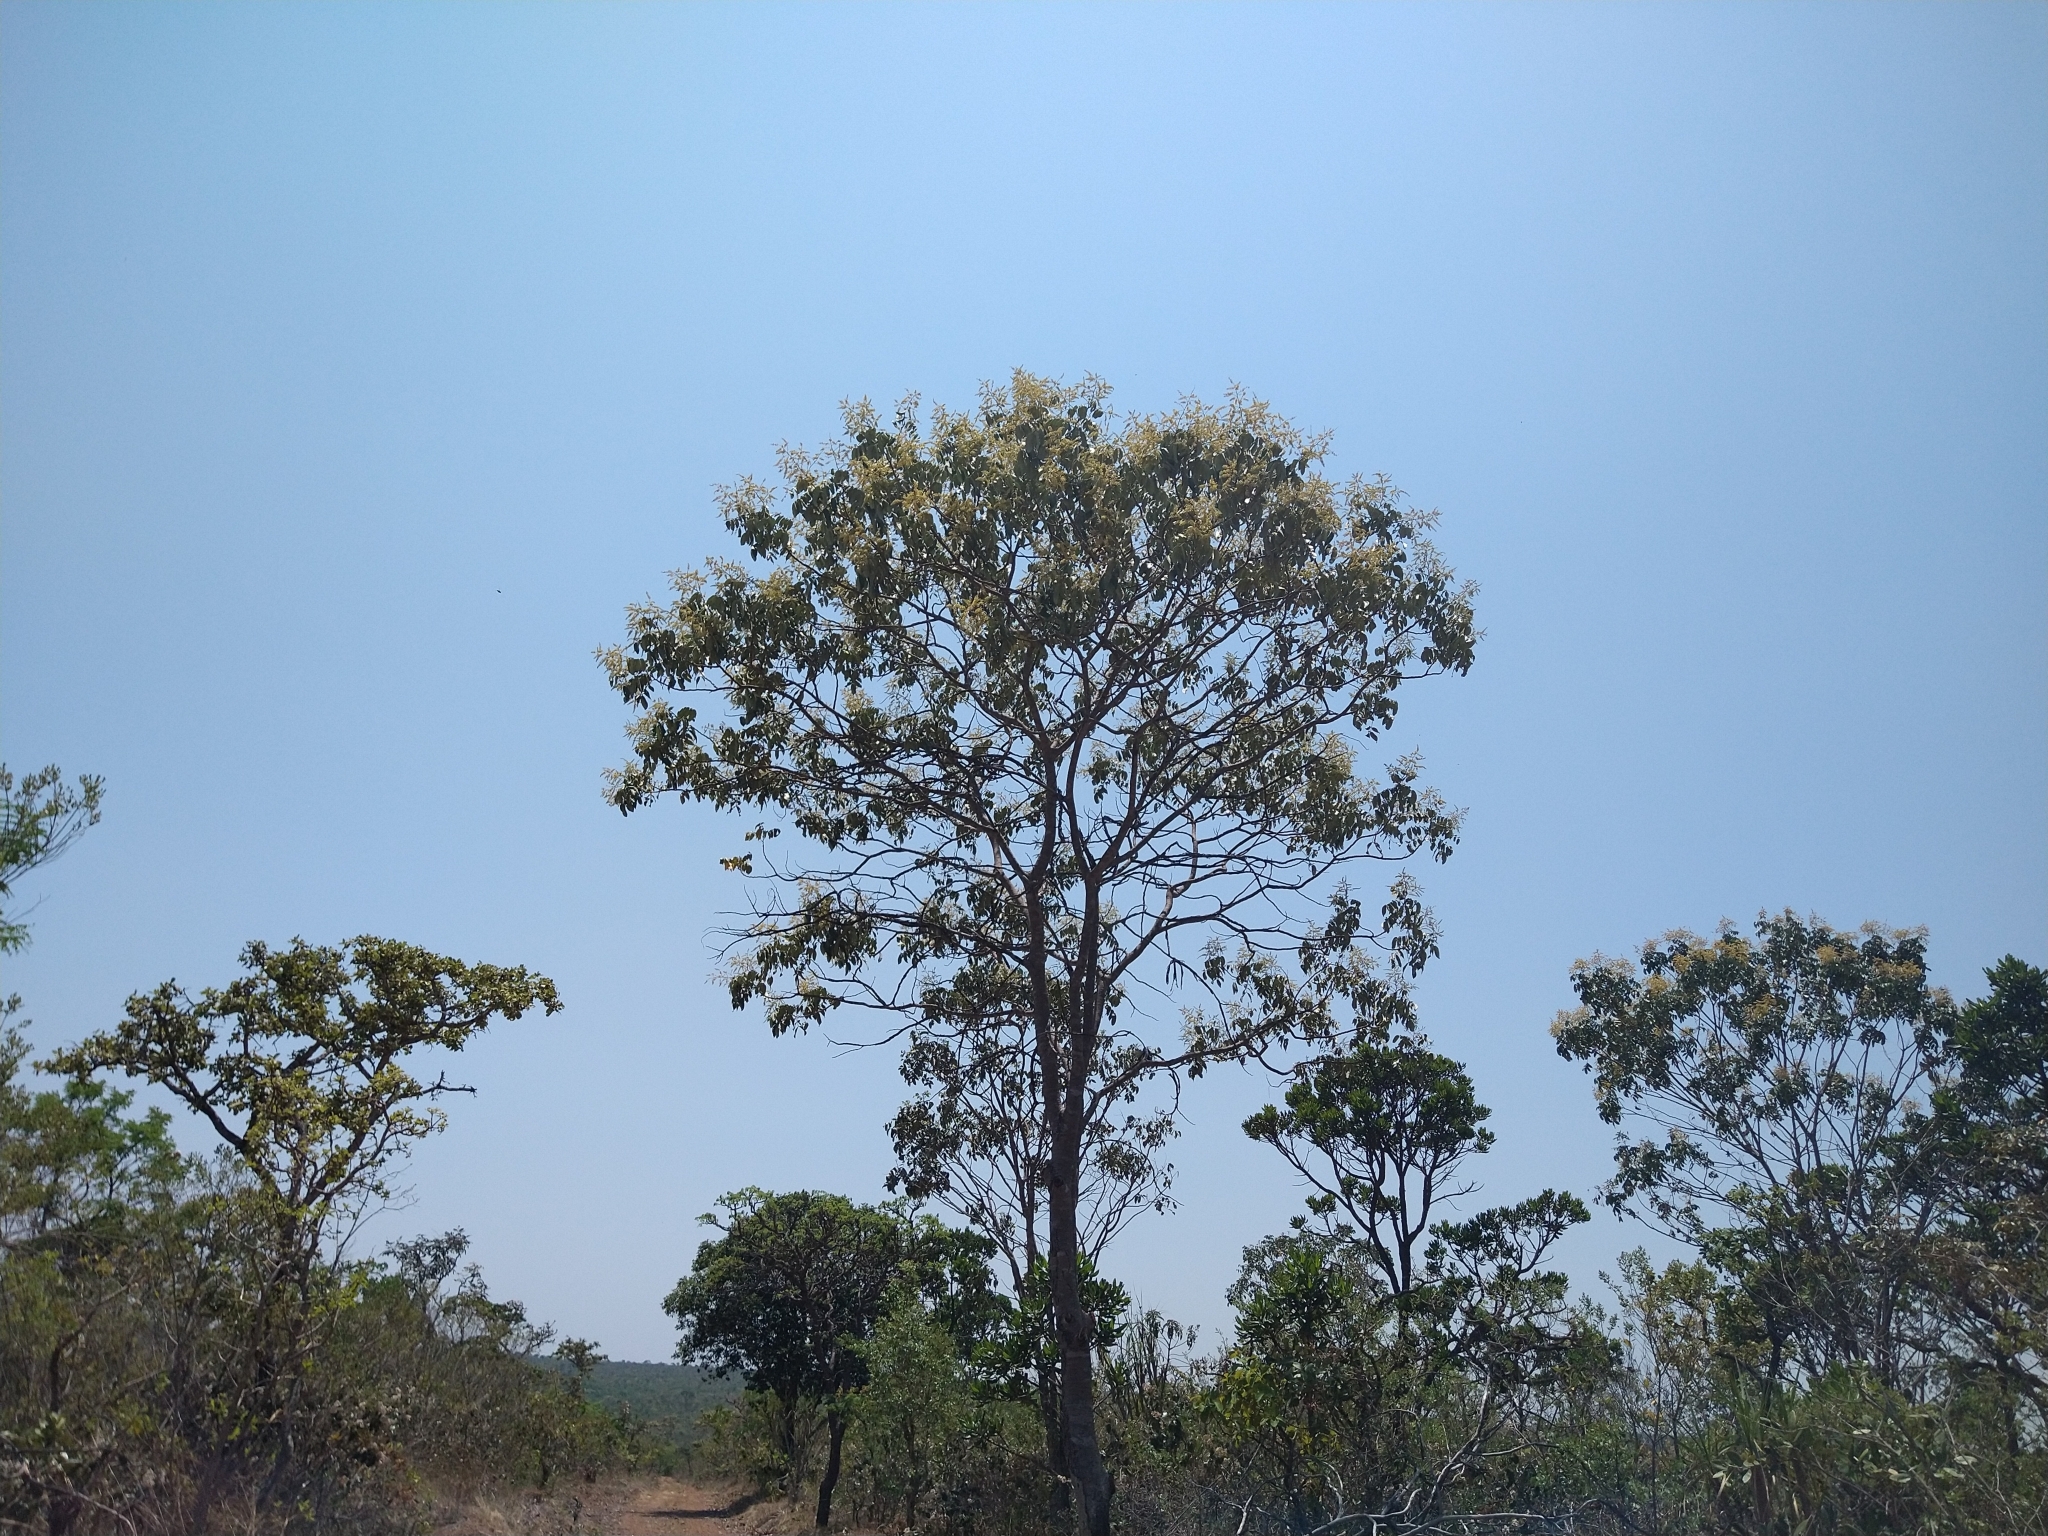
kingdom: Plantae
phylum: Tracheophyta
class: Magnoliopsida
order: Fabales
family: Fabaceae
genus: Tachigali
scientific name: Tachigali vulgaris
